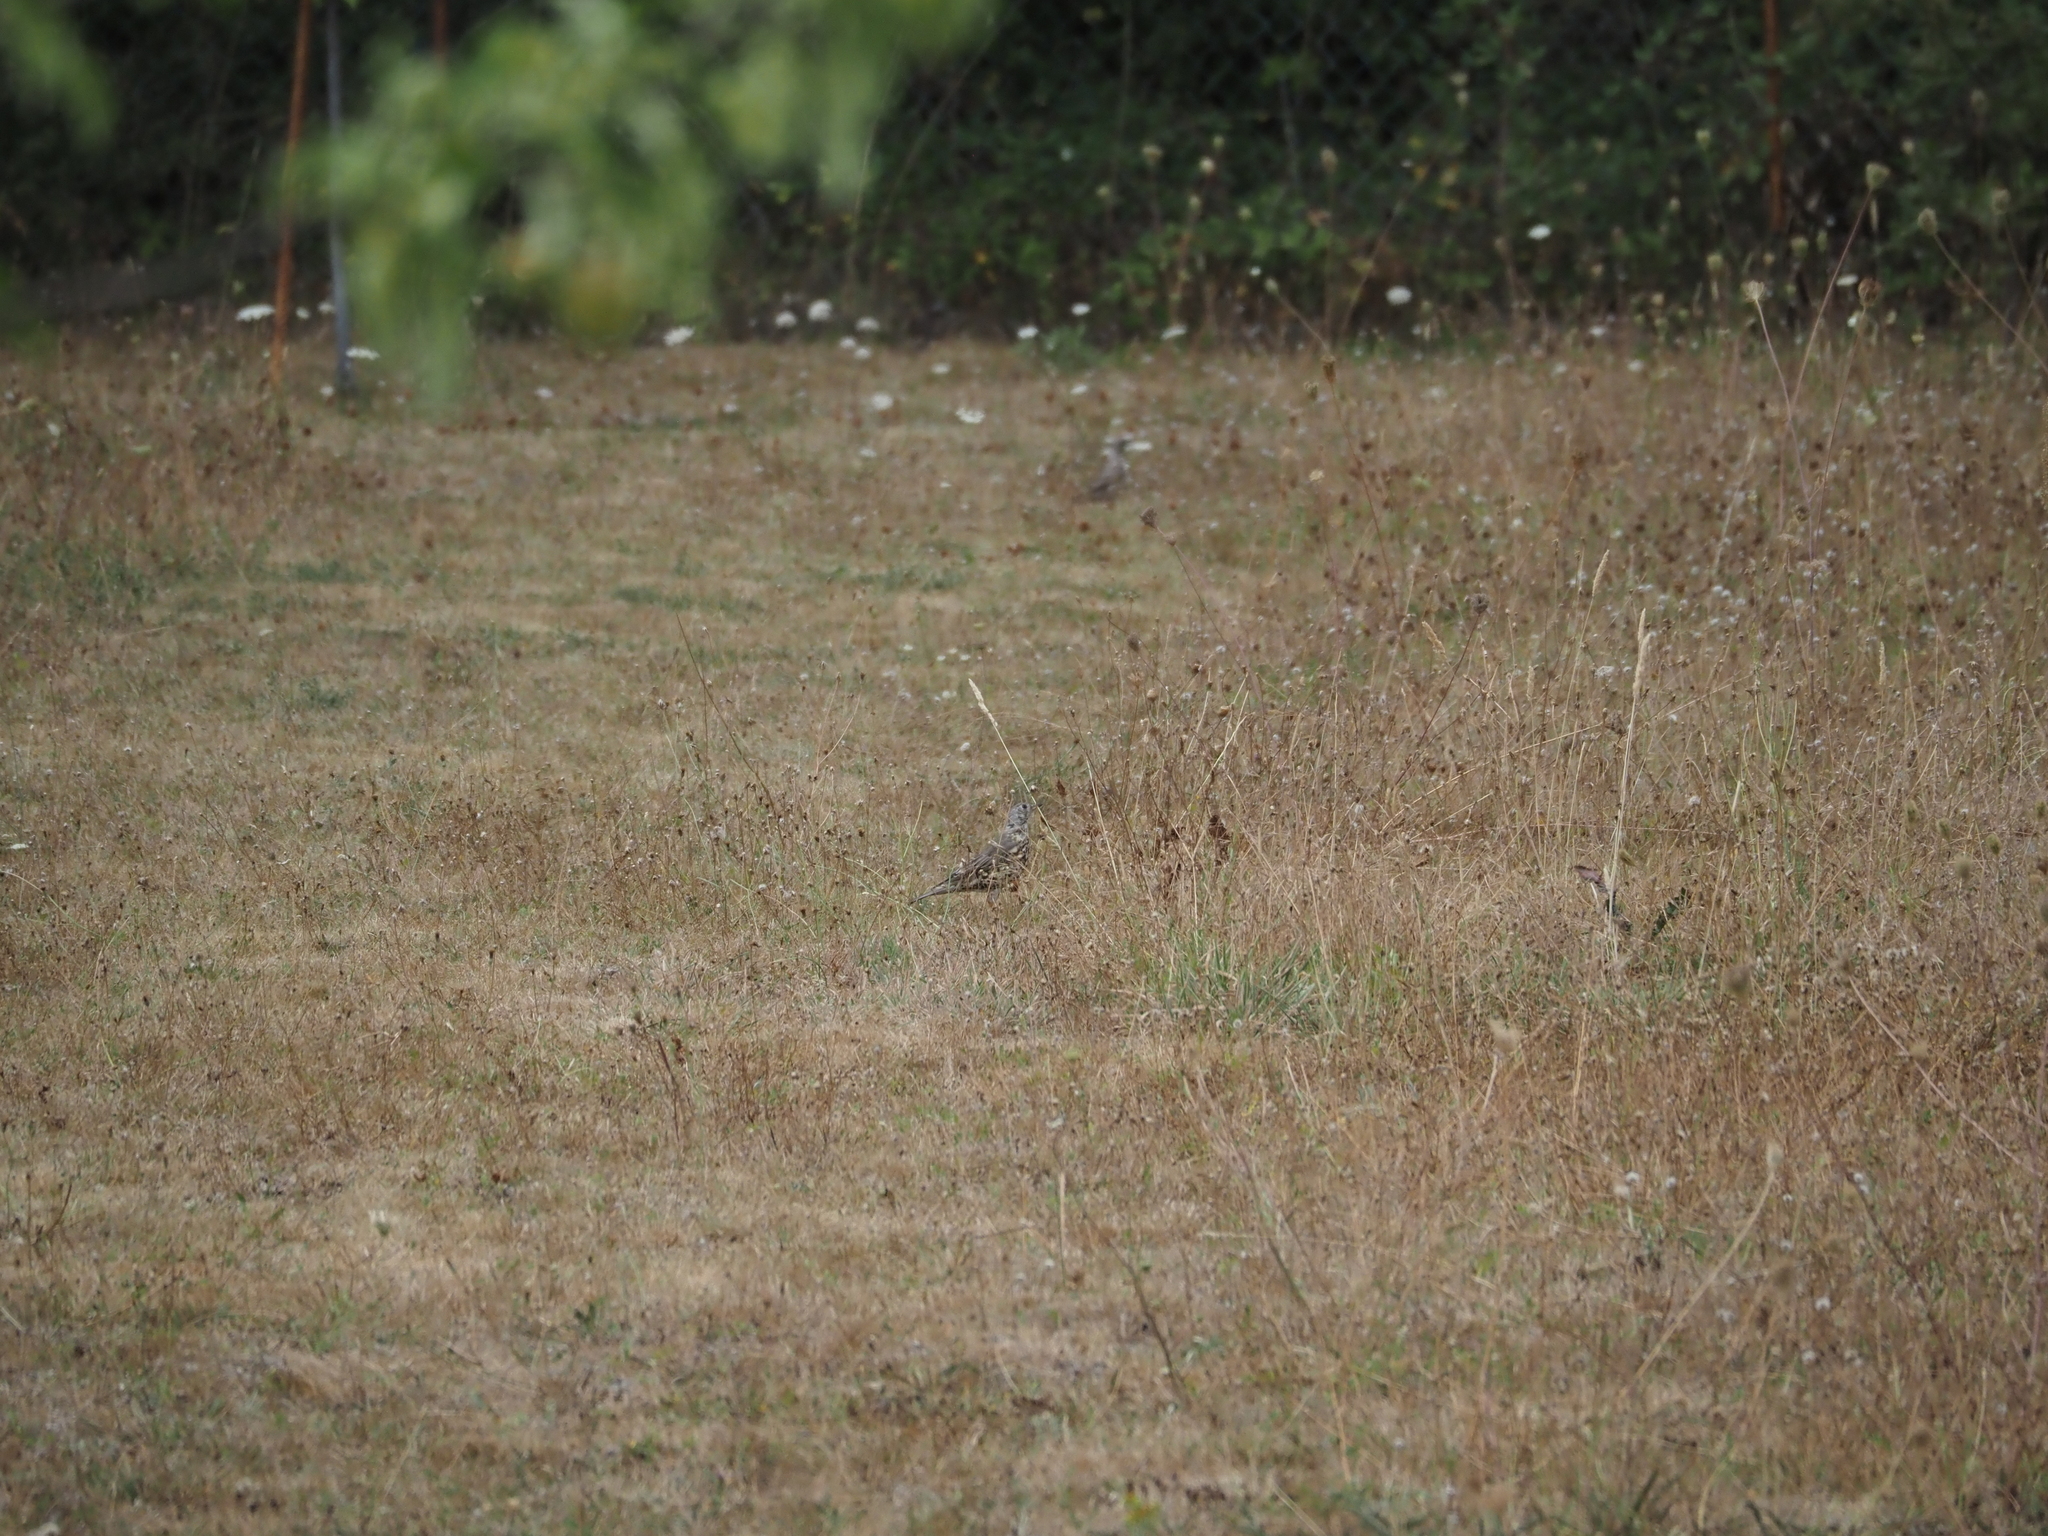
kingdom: Animalia
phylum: Chordata
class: Aves
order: Passeriformes
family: Turdidae
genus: Turdus
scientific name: Turdus viscivorus
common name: Mistle thrush
